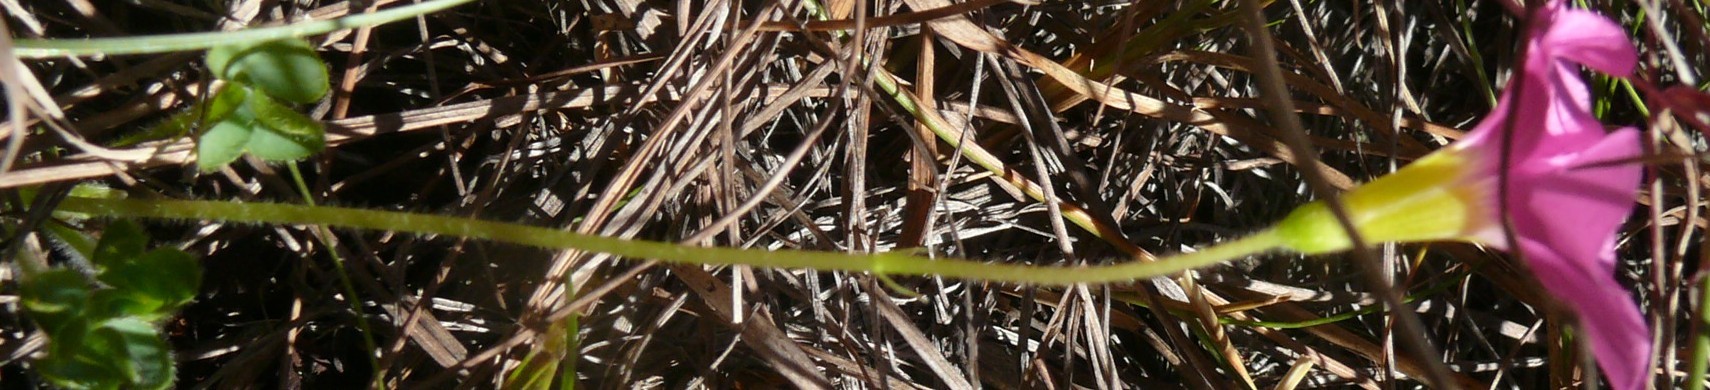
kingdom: Plantae
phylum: Tracheophyta
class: Magnoliopsida
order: Oxalidales
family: Oxalidaceae
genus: Oxalis
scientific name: Oxalis imbricata
